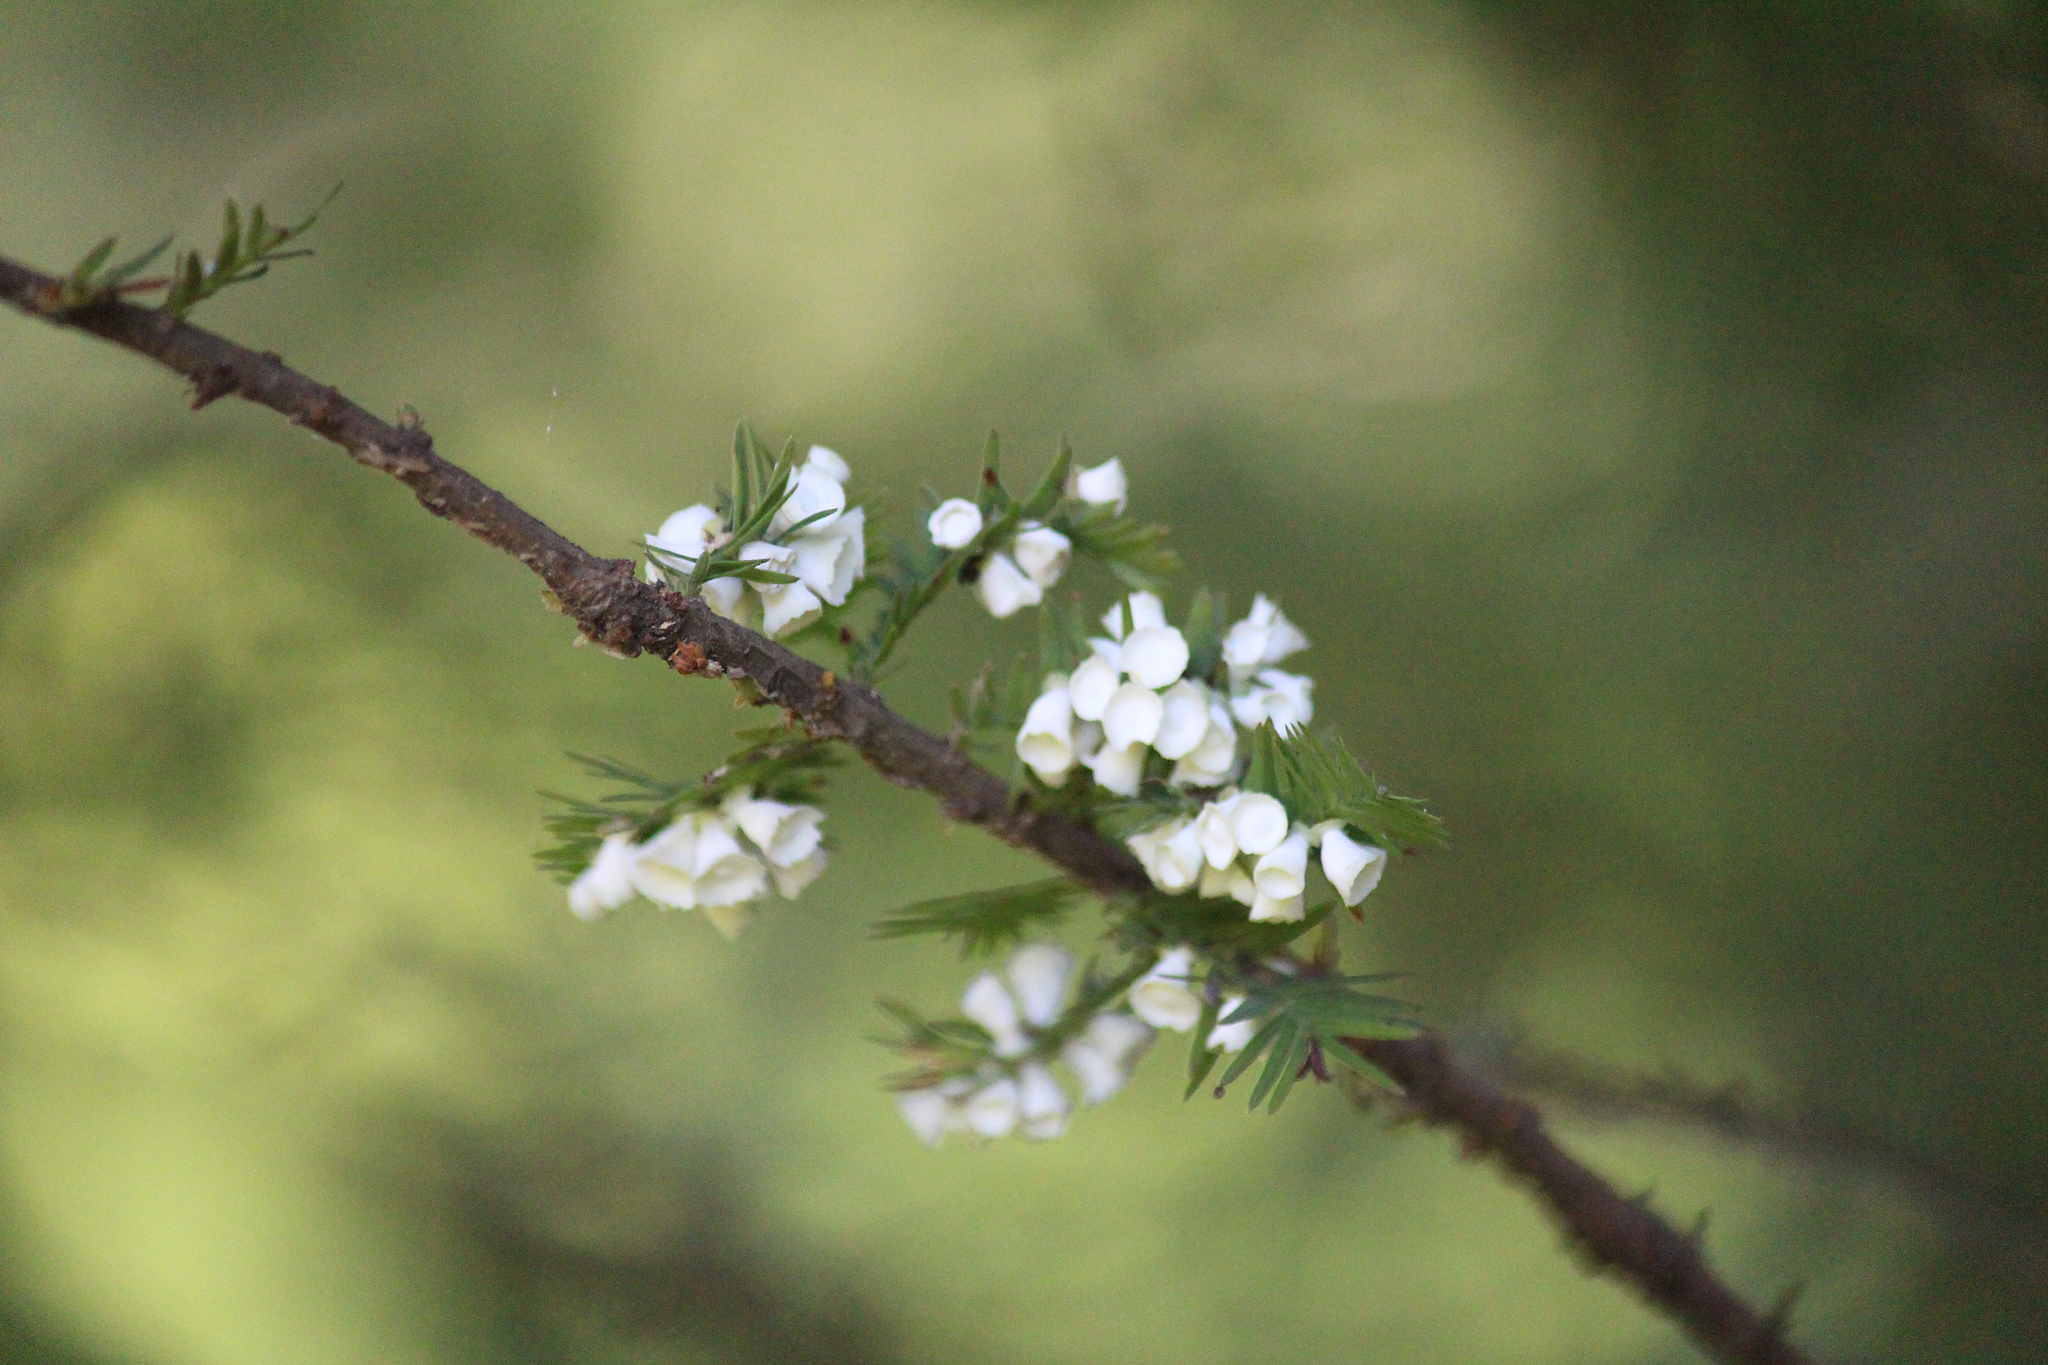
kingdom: Animalia
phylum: Arthropoda
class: Insecta
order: Diptera
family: Cecidomyiidae
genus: Taxodiomyia
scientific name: Taxodiomyia cupressi
